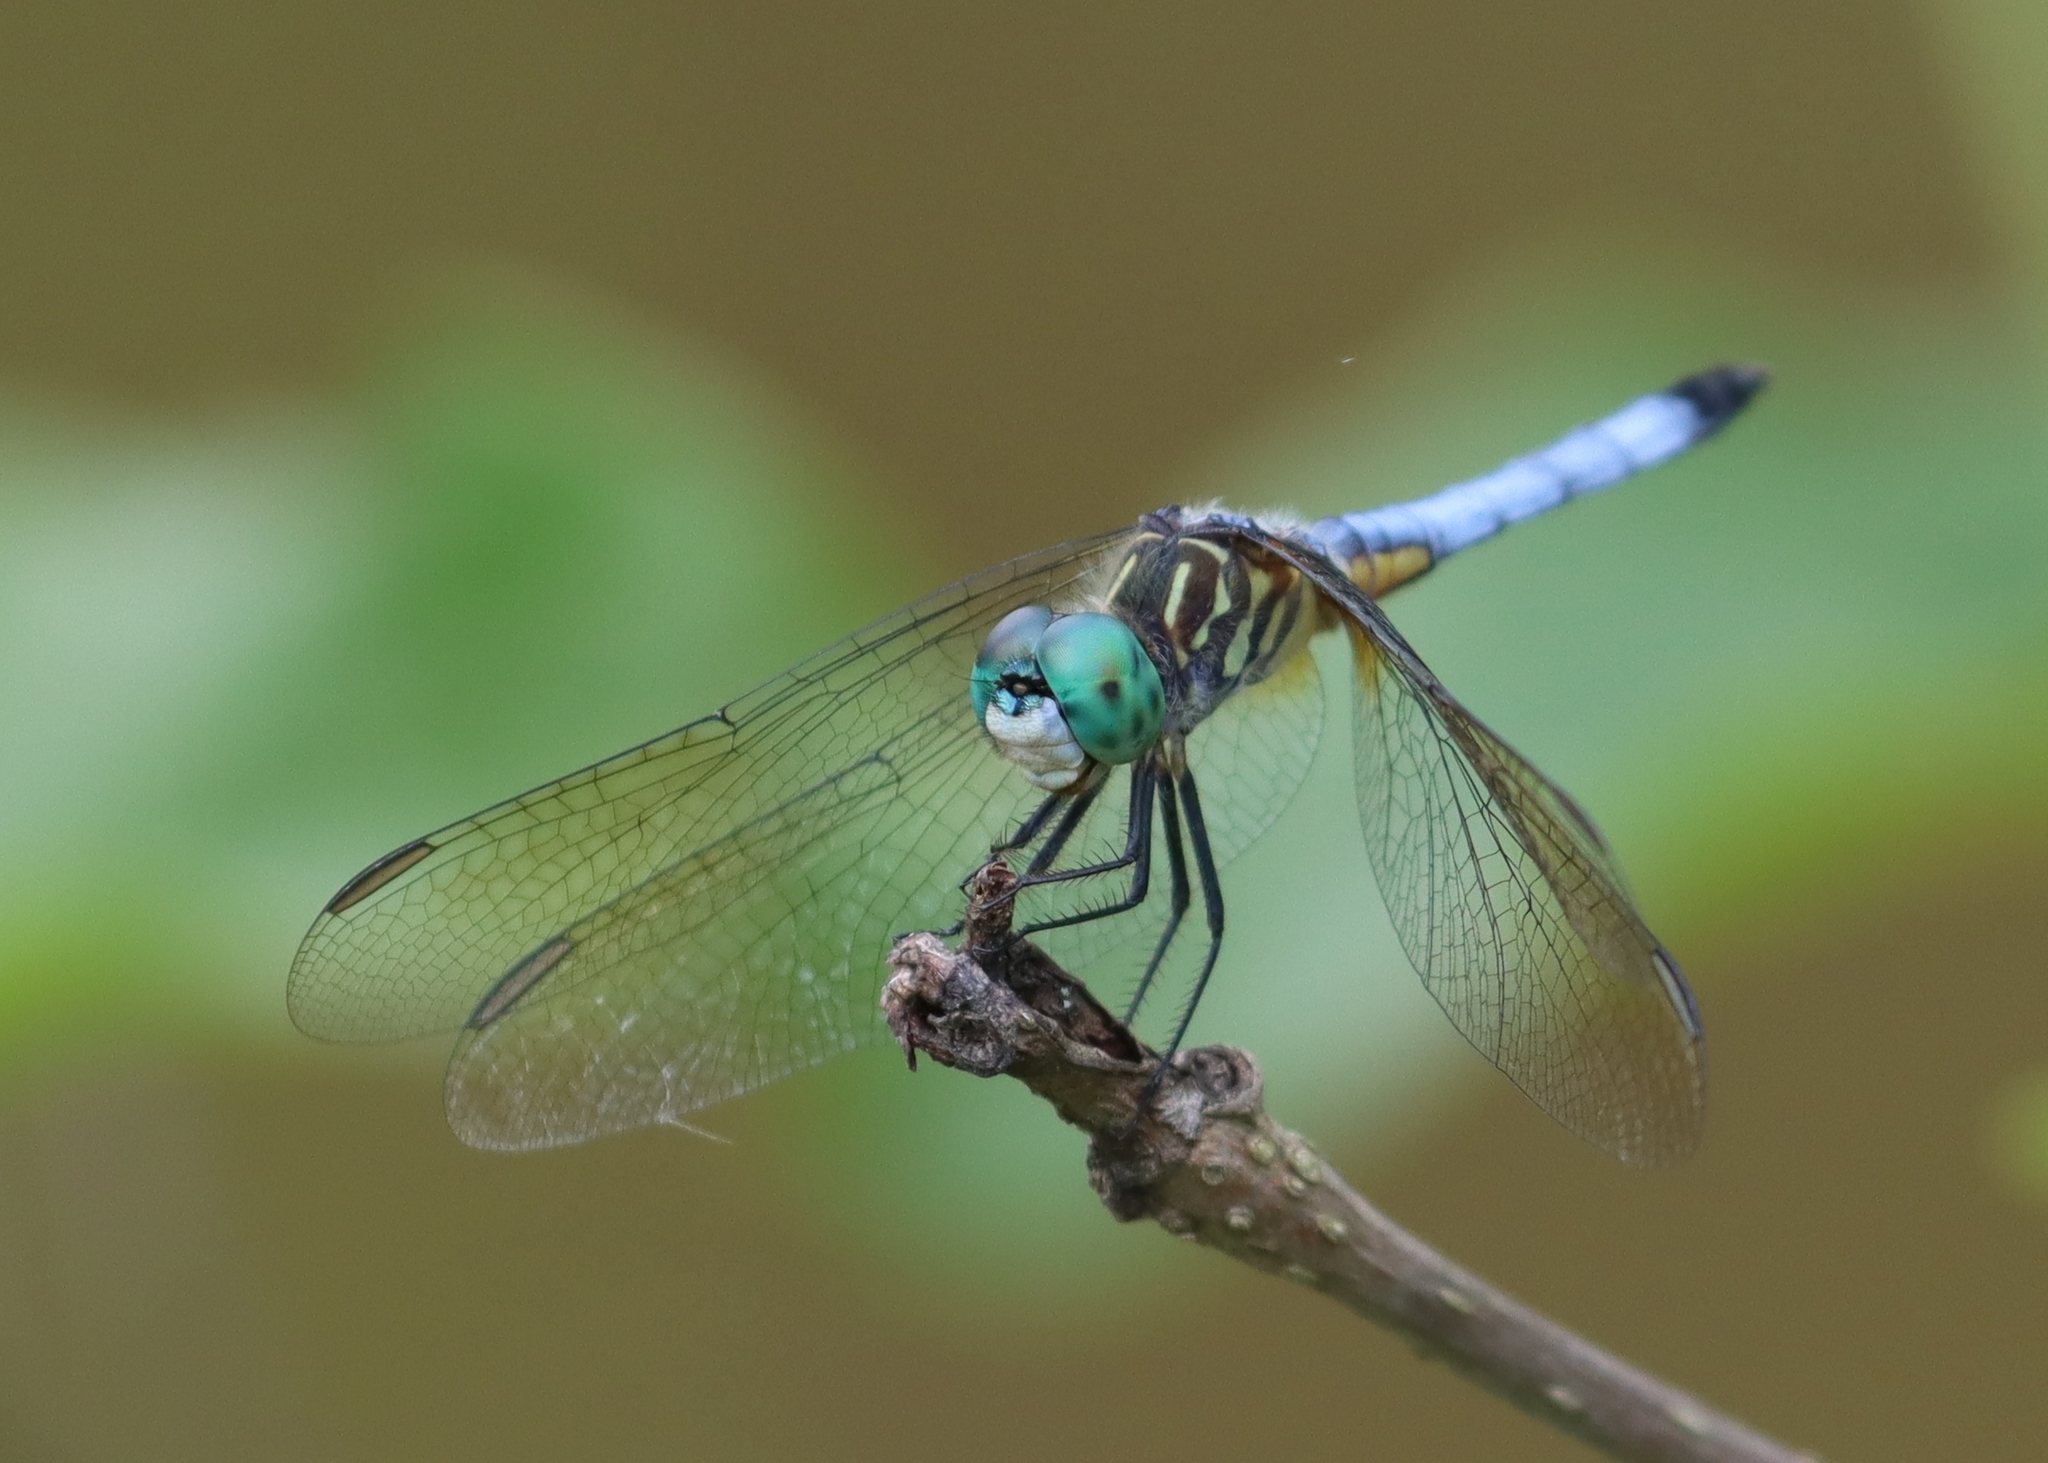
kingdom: Animalia
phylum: Arthropoda
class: Insecta
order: Odonata
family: Libellulidae
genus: Pachydiplax
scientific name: Pachydiplax longipennis
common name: Blue dasher
